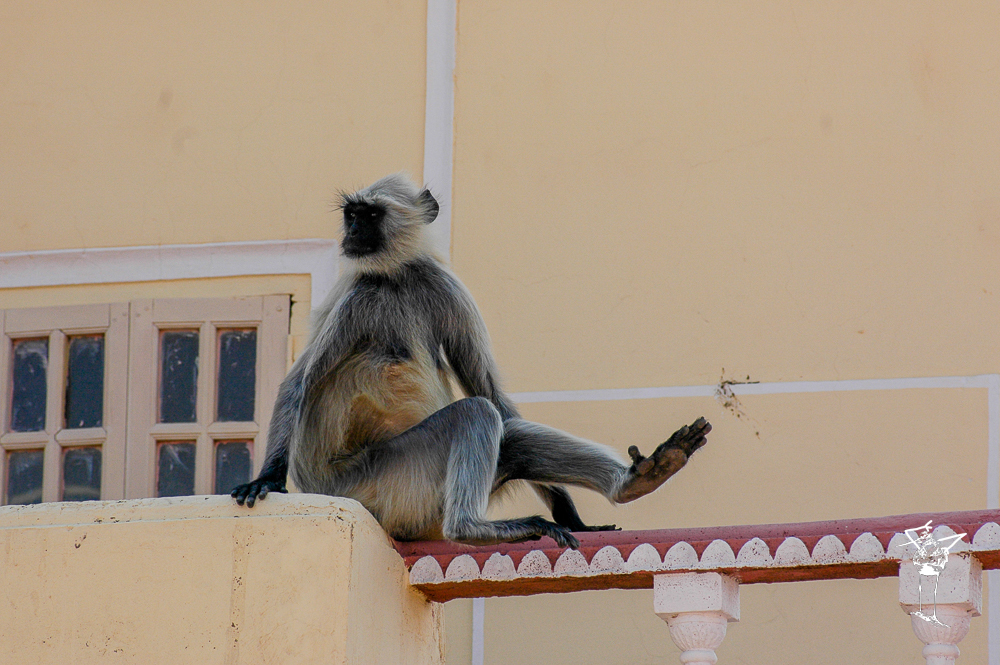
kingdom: Animalia
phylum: Chordata
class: Mammalia
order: Primates
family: Cercopithecidae
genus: Semnopithecus
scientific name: Semnopithecus entellus
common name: Northern plains gray langur
